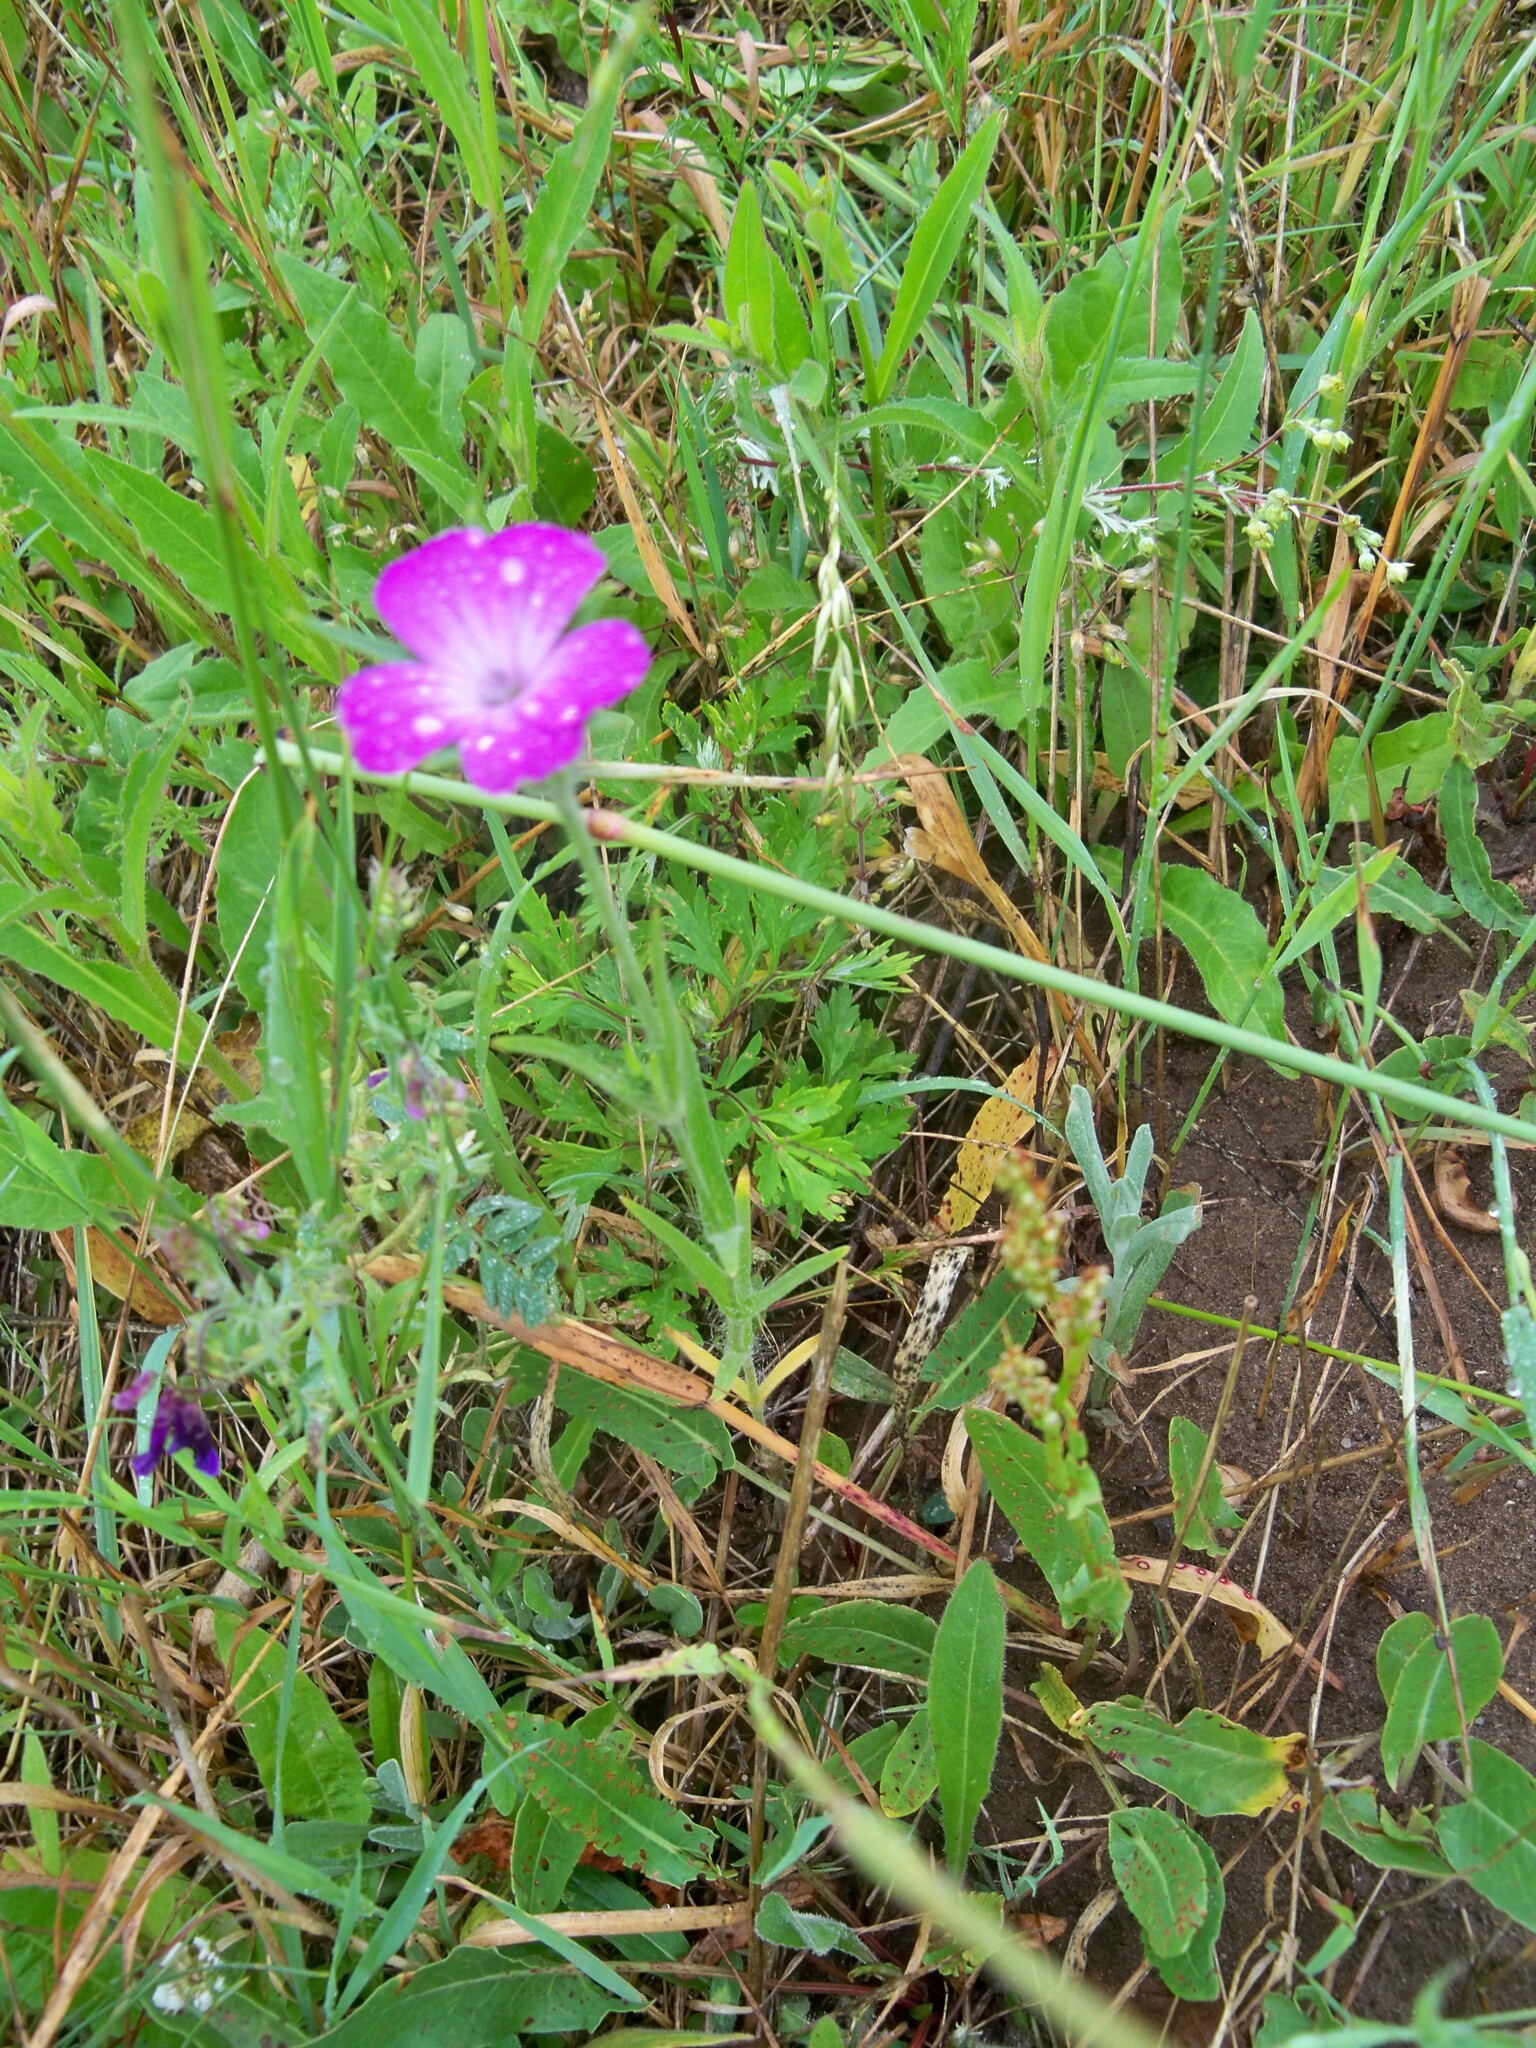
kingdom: Plantae
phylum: Tracheophyta
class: Magnoliopsida
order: Caryophyllales
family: Caryophyllaceae
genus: Agrostemma
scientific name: Agrostemma githago
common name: Common corncockle
